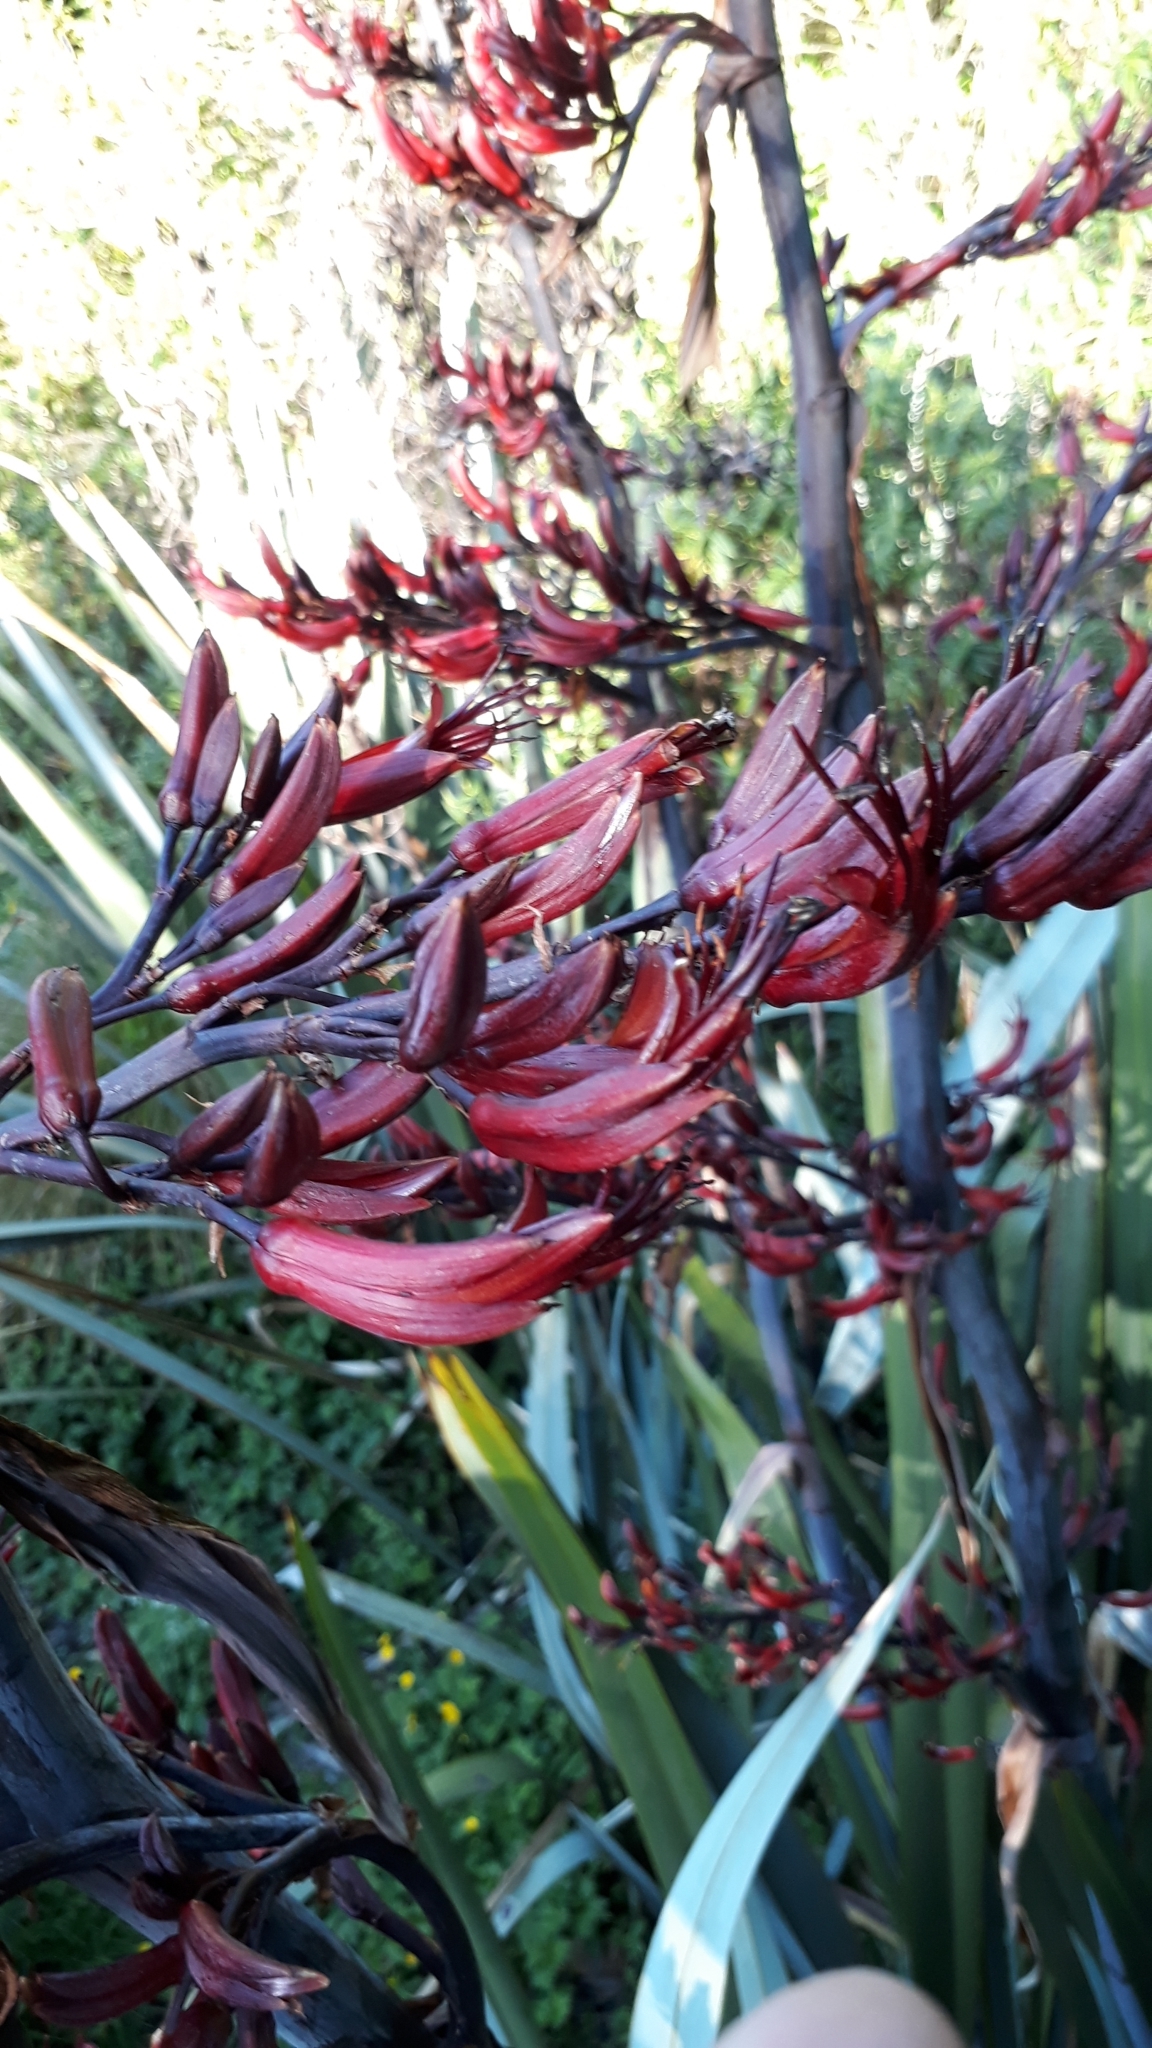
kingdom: Plantae
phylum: Tracheophyta
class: Liliopsida
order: Asparagales
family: Asphodelaceae
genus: Phormium
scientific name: Phormium tenax
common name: New zealand flax
